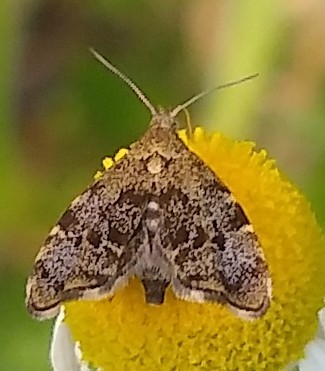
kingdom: Animalia
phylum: Arthropoda
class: Insecta
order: Lepidoptera
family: Choreutidae
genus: Anthophila
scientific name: Anthophila fabriciana
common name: Nettle-tap
